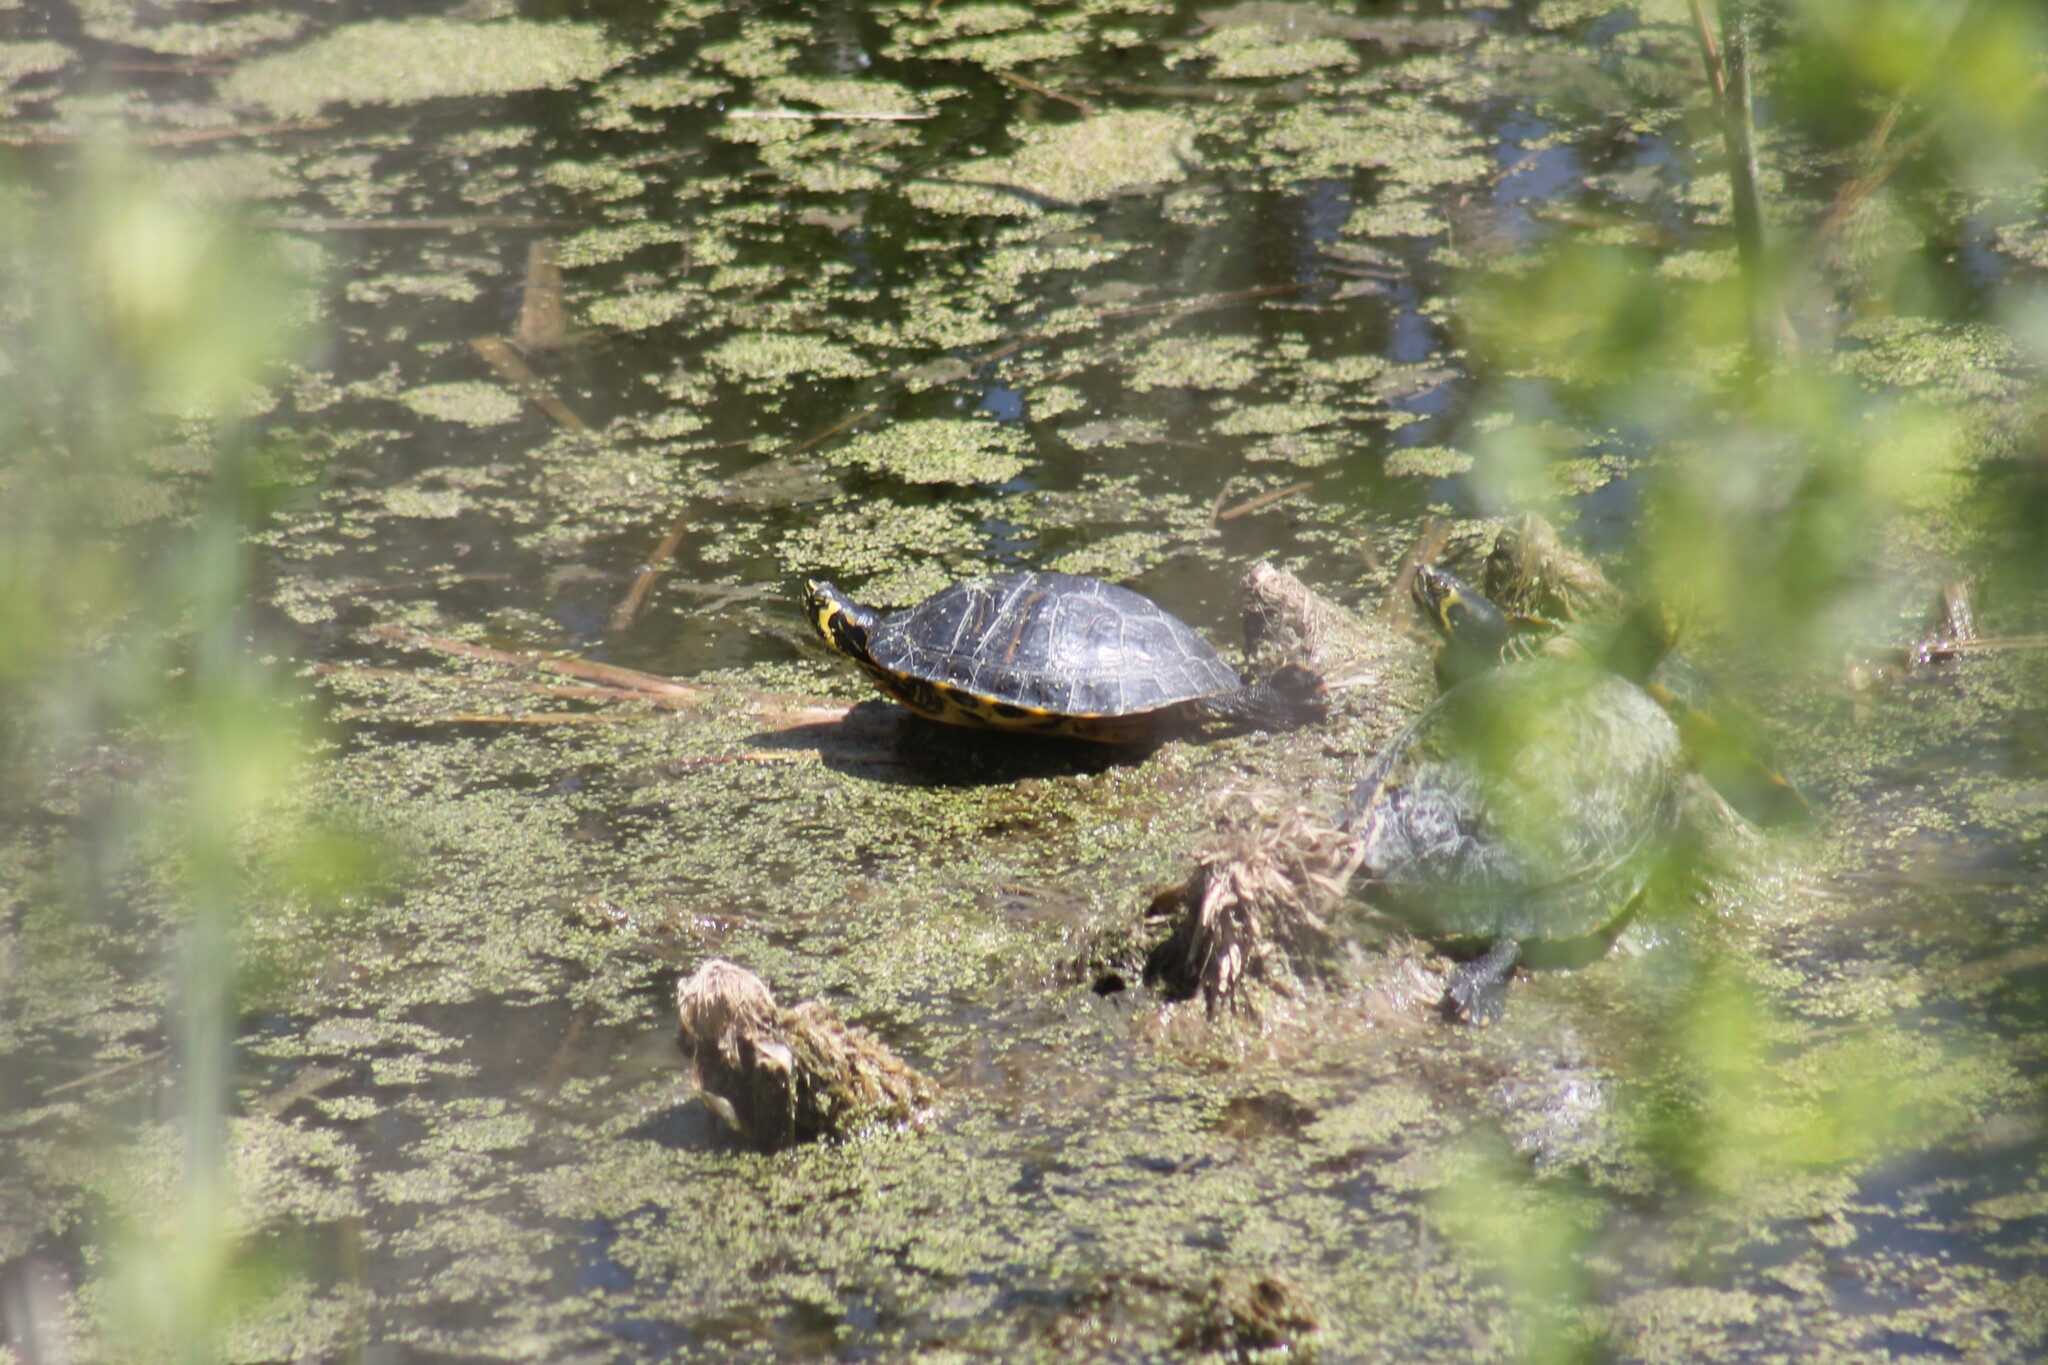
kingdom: Animalia
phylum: Chordata
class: Testudines
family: Emydidae
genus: Trachemys
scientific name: Trachemys scripta
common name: Slider
